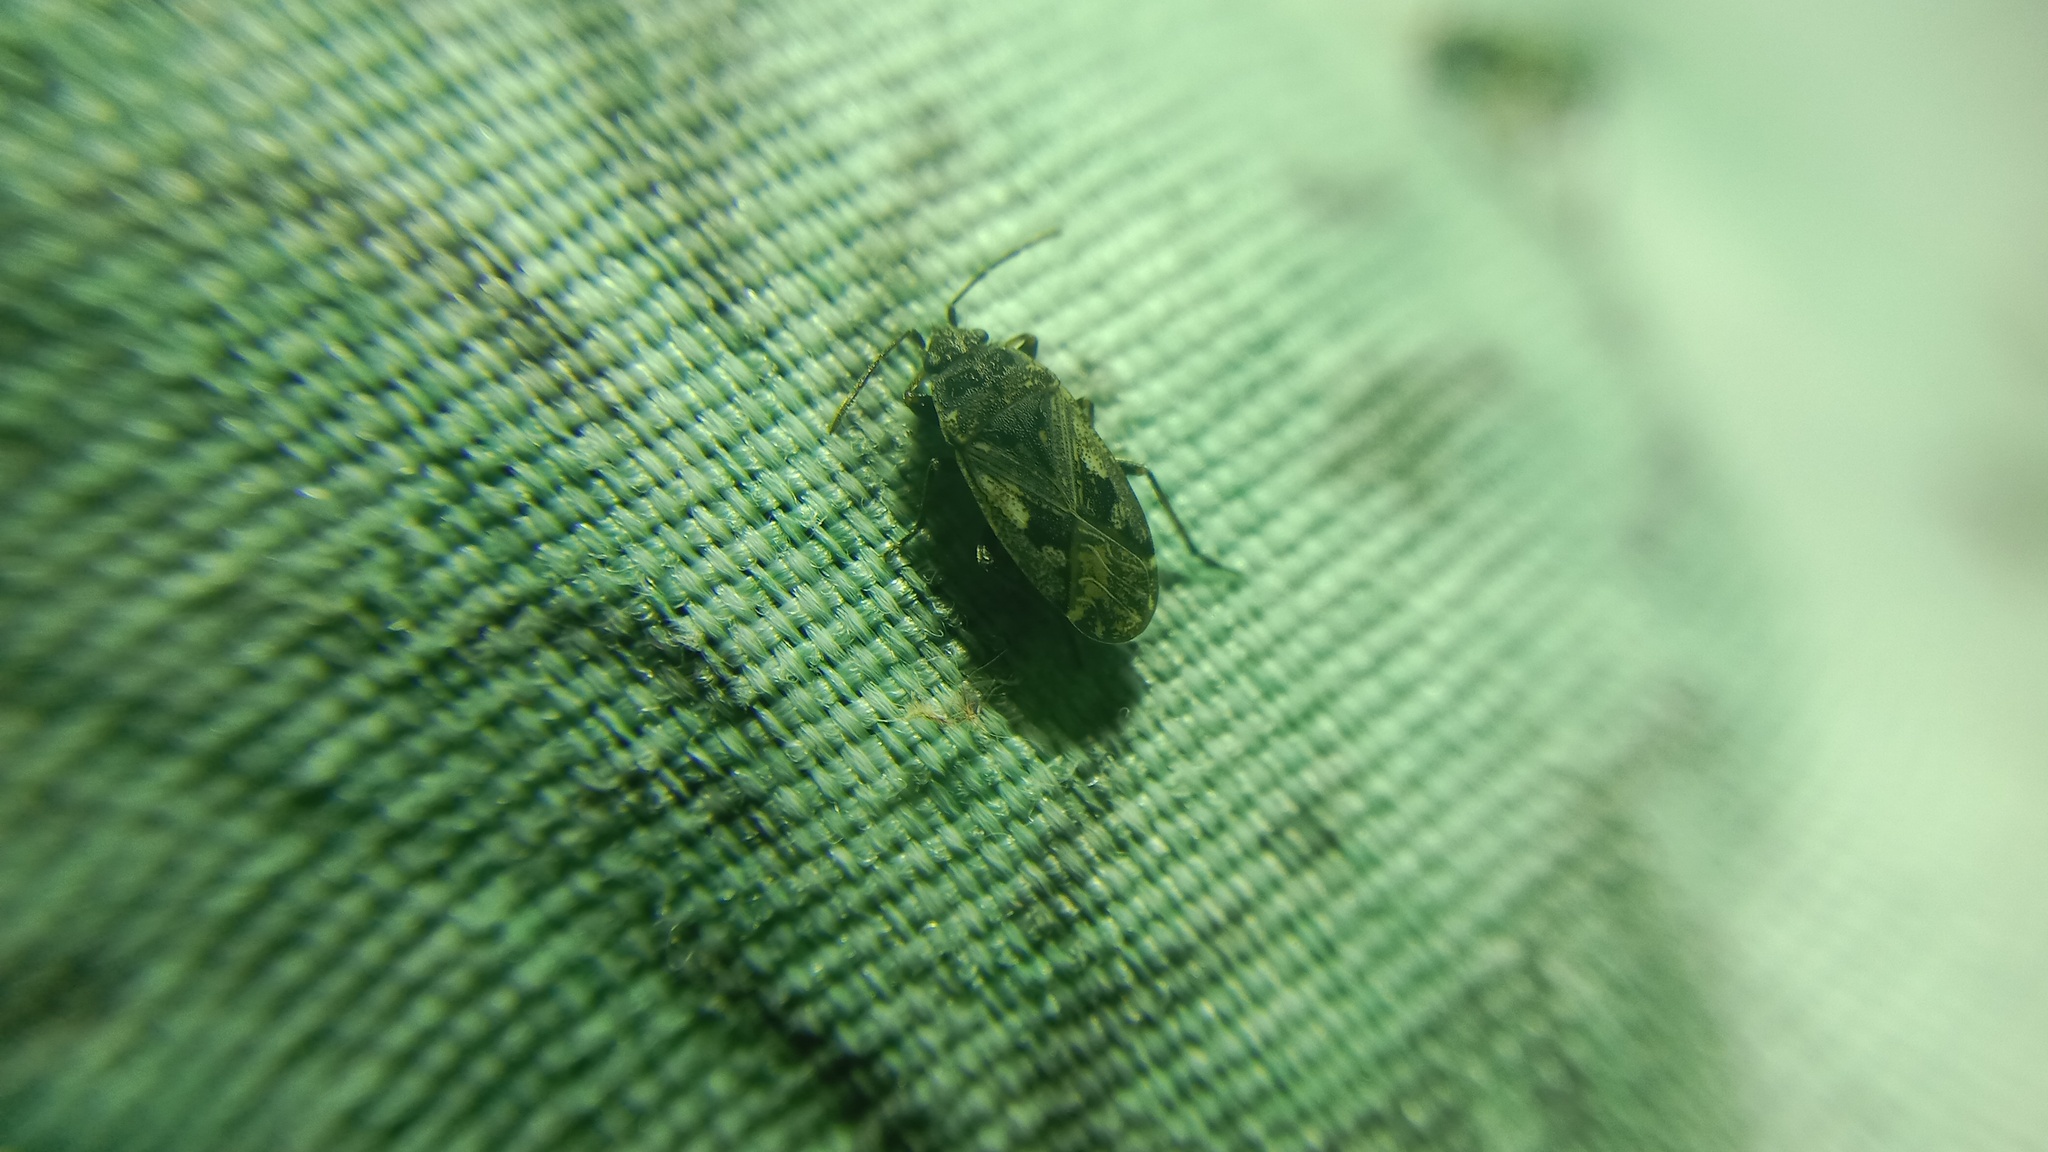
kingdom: Animalia
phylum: Arthropoda
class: Insecta
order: Hemiptera
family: Rhyparochromidae
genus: Sphragisticus
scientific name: Sphragisticus nebulosus
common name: Dirt-colored seed bug
